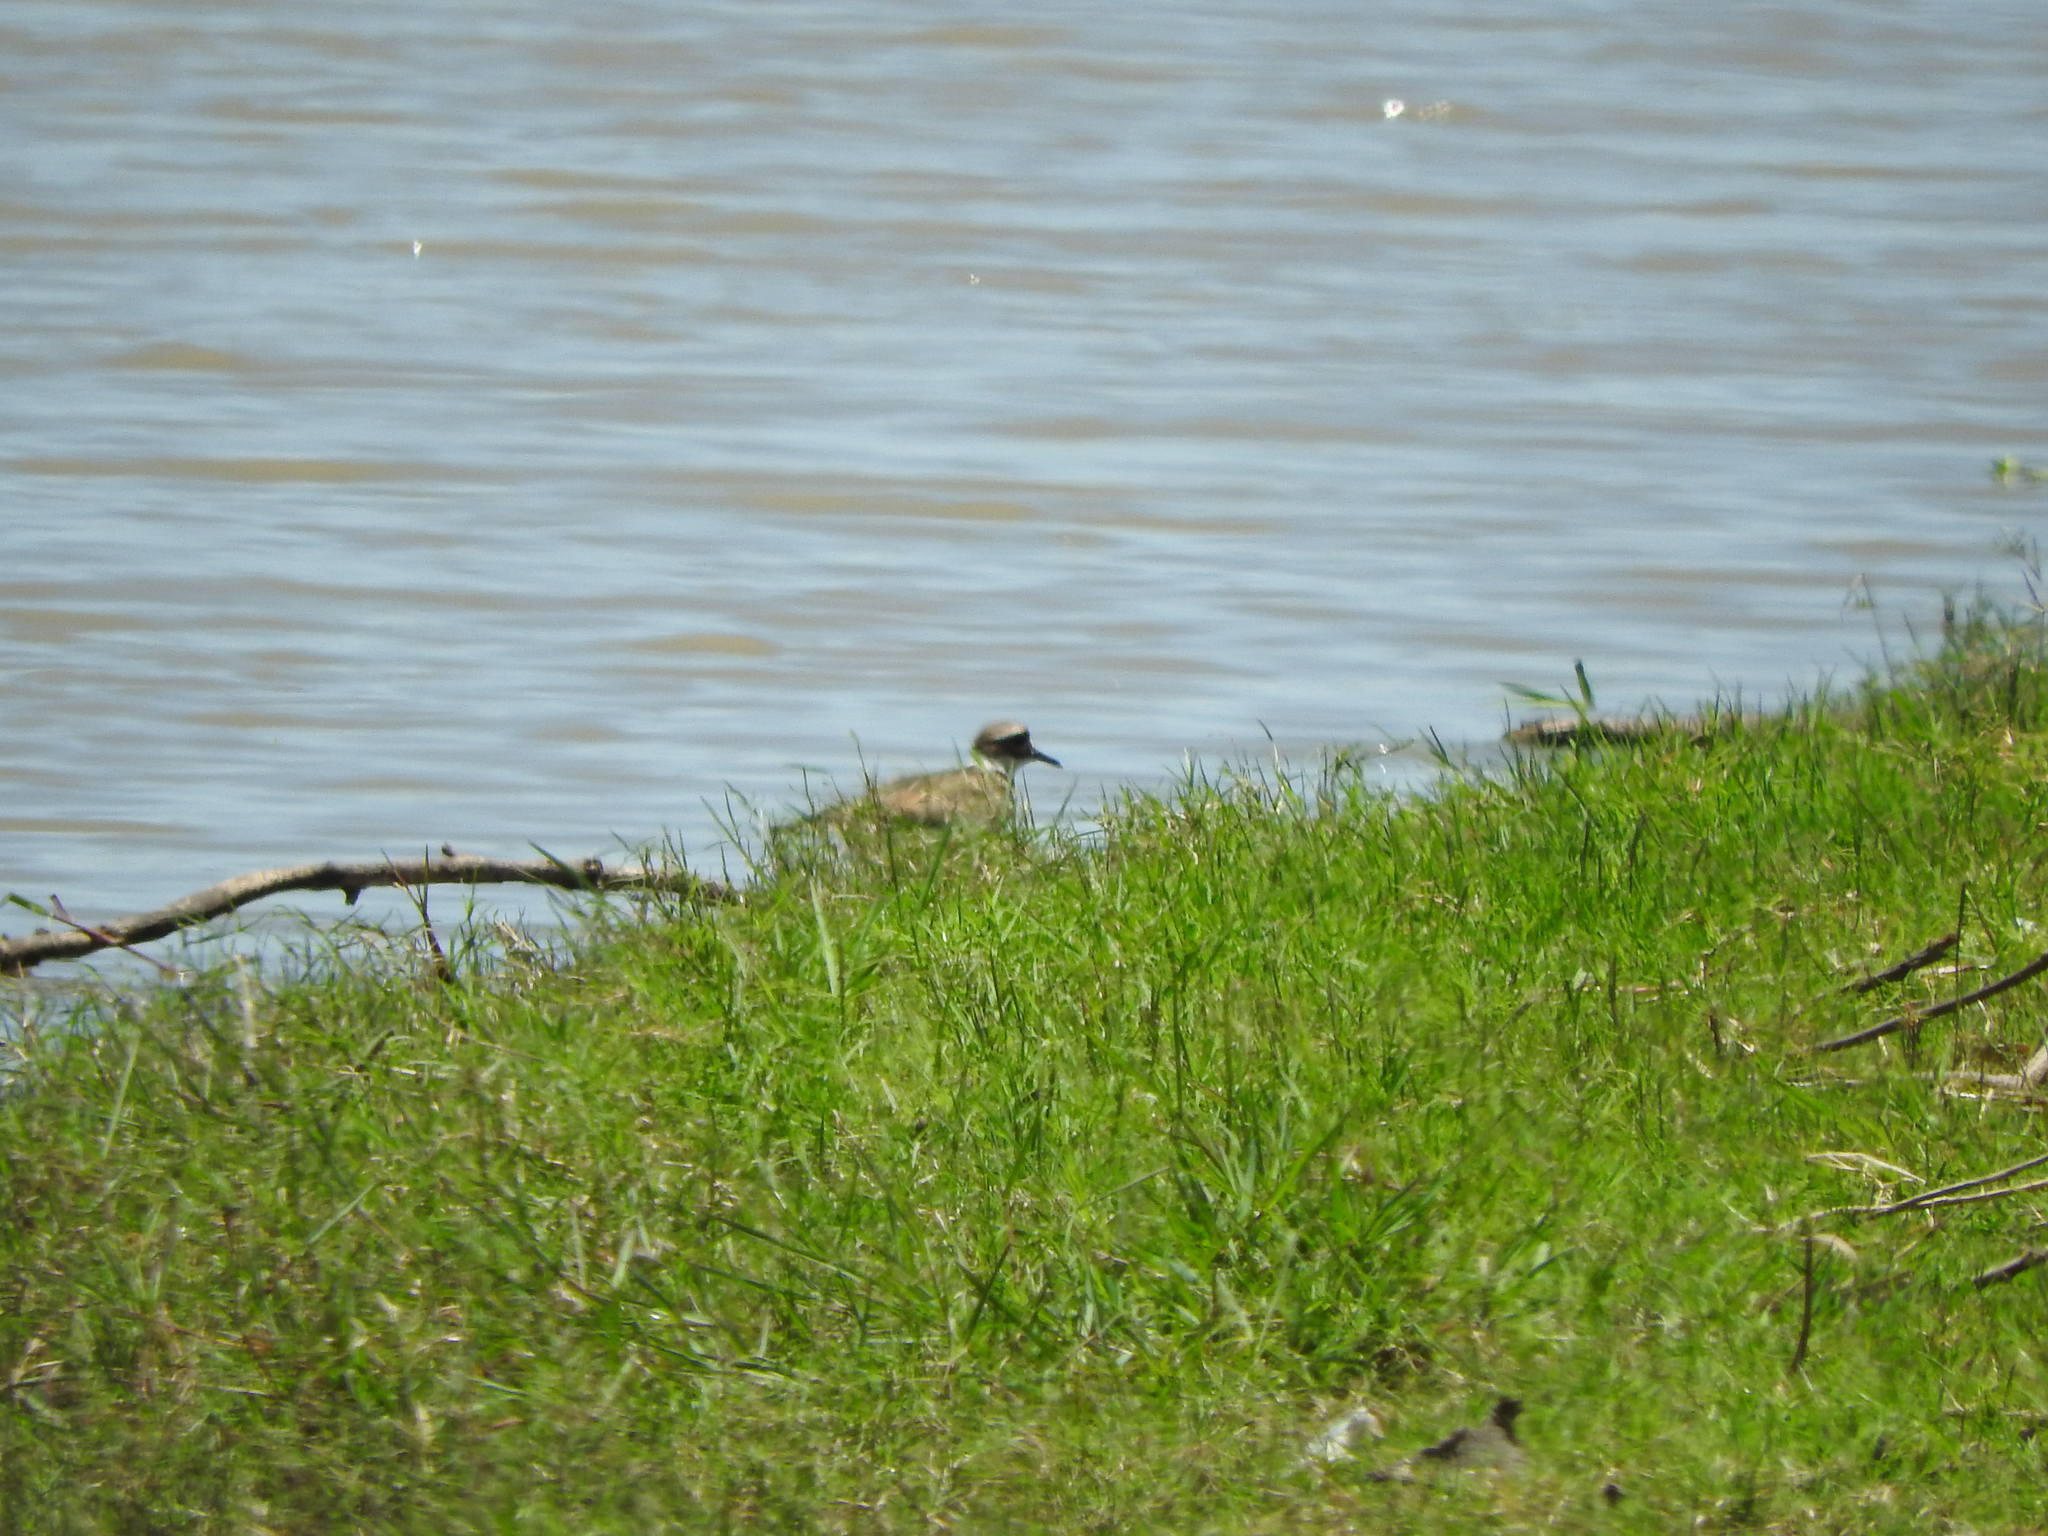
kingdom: Animalia
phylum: Chordata
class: Aves
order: Charadriiformes
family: Charadriidae
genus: Charadrius
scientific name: Charadrius vociferus
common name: Killdeer
